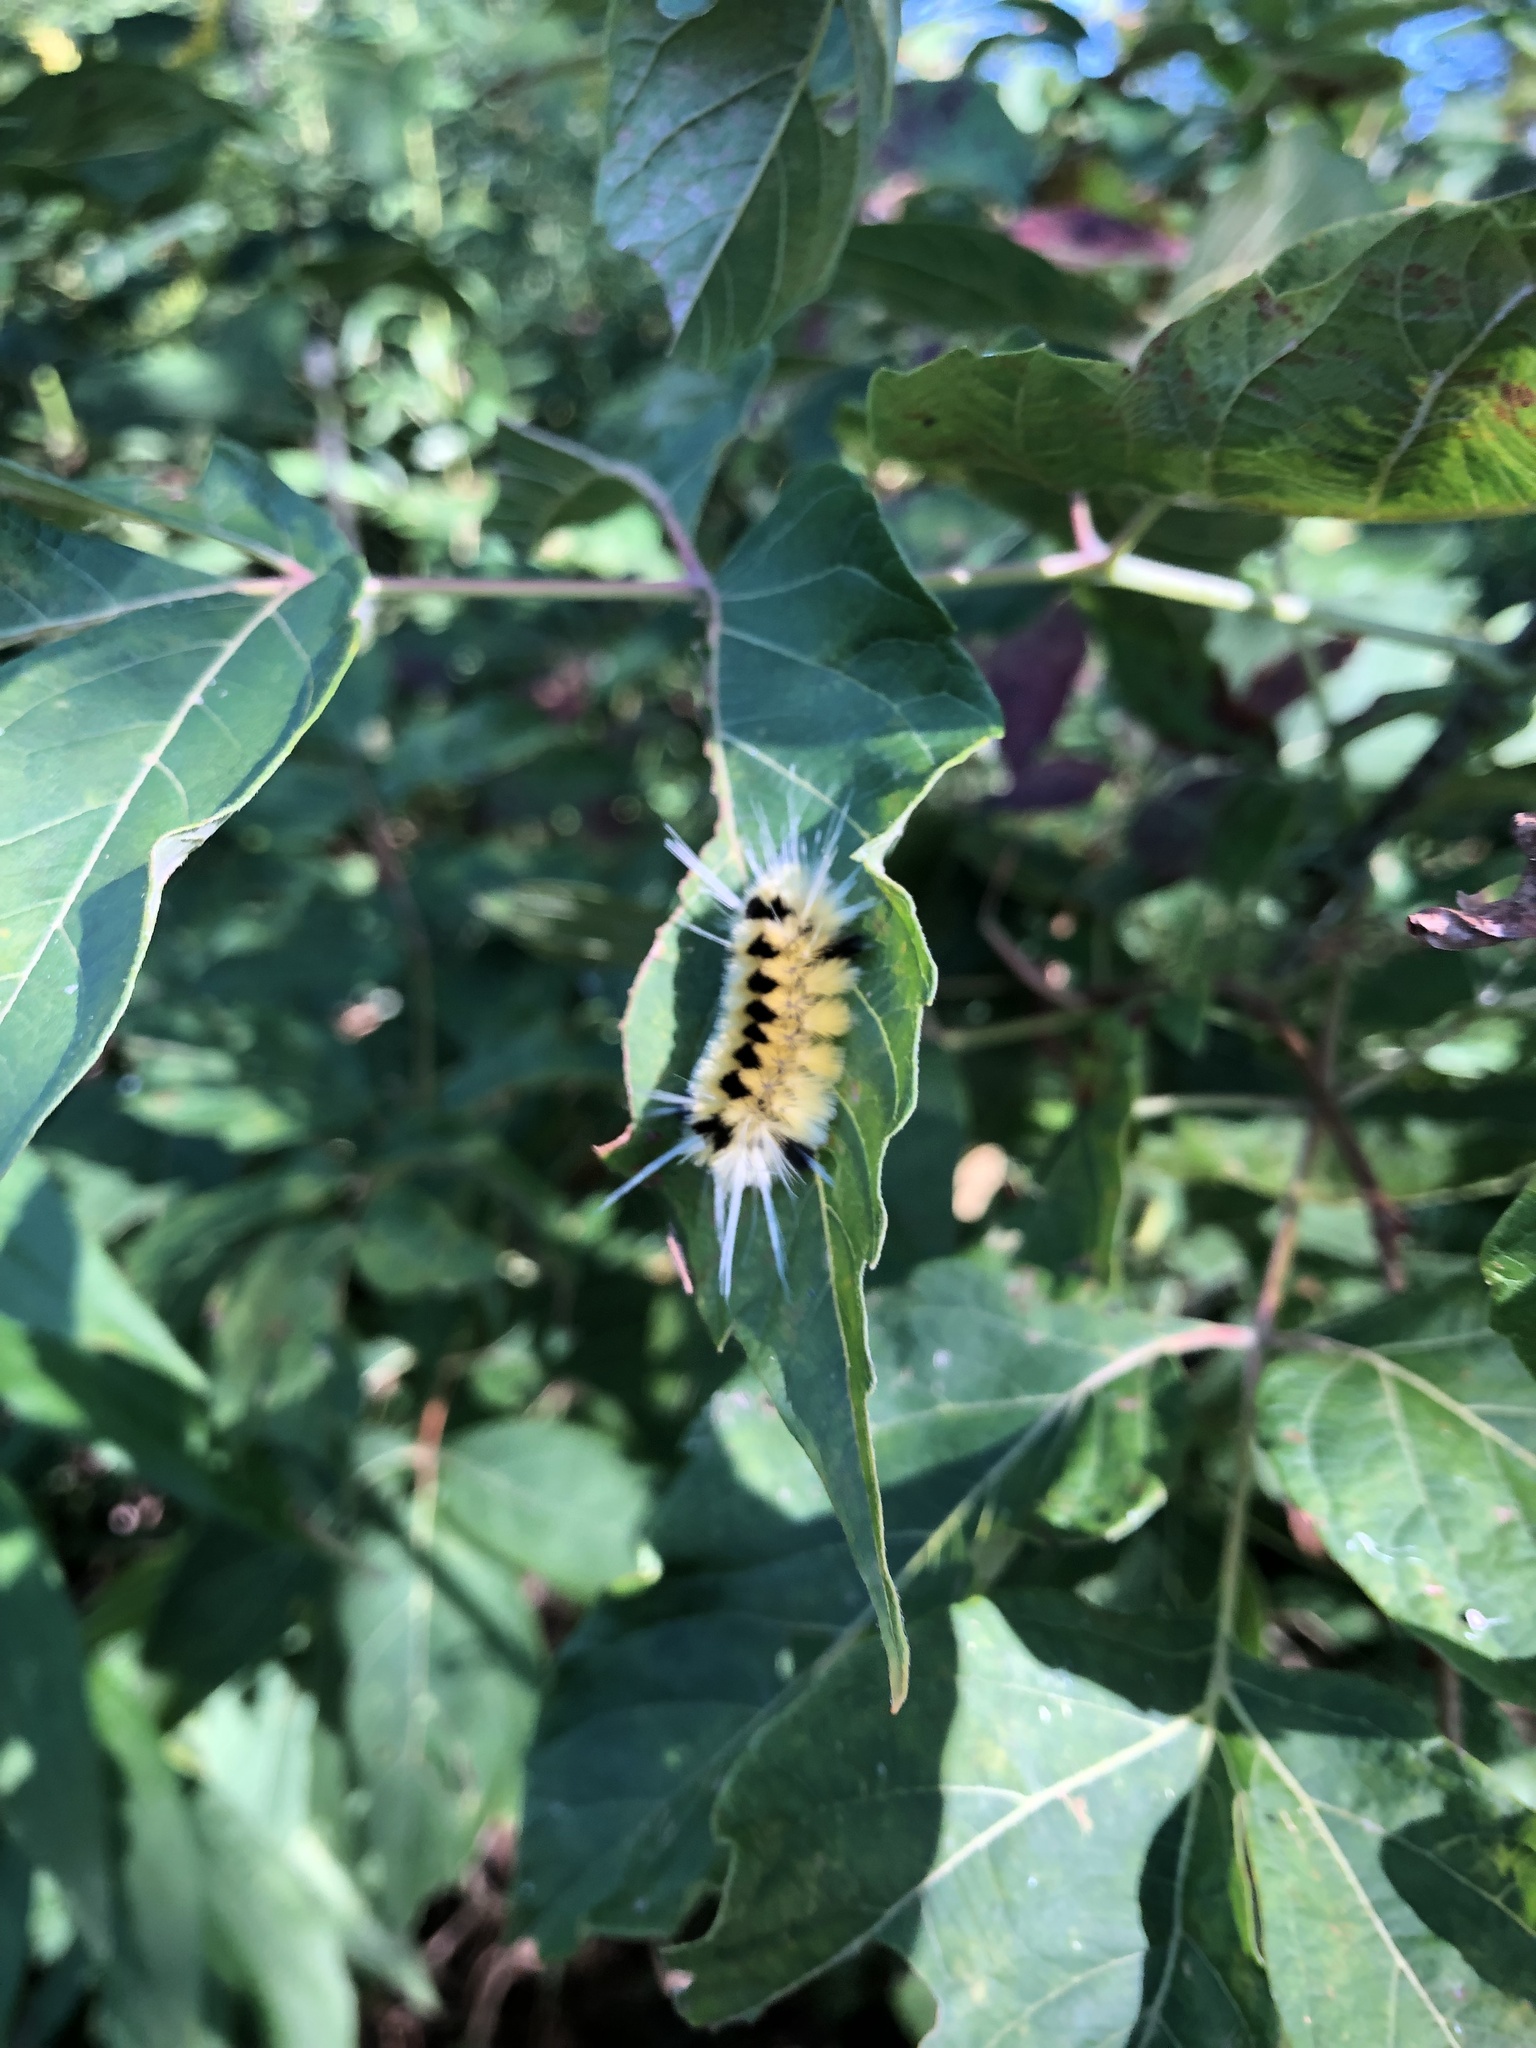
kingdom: Animalia
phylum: Arthropoda
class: Insecta
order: Lepidoptera
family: Erebidae
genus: Lophocampa
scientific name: Lophocampa maculata
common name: Spotted tussock moth
